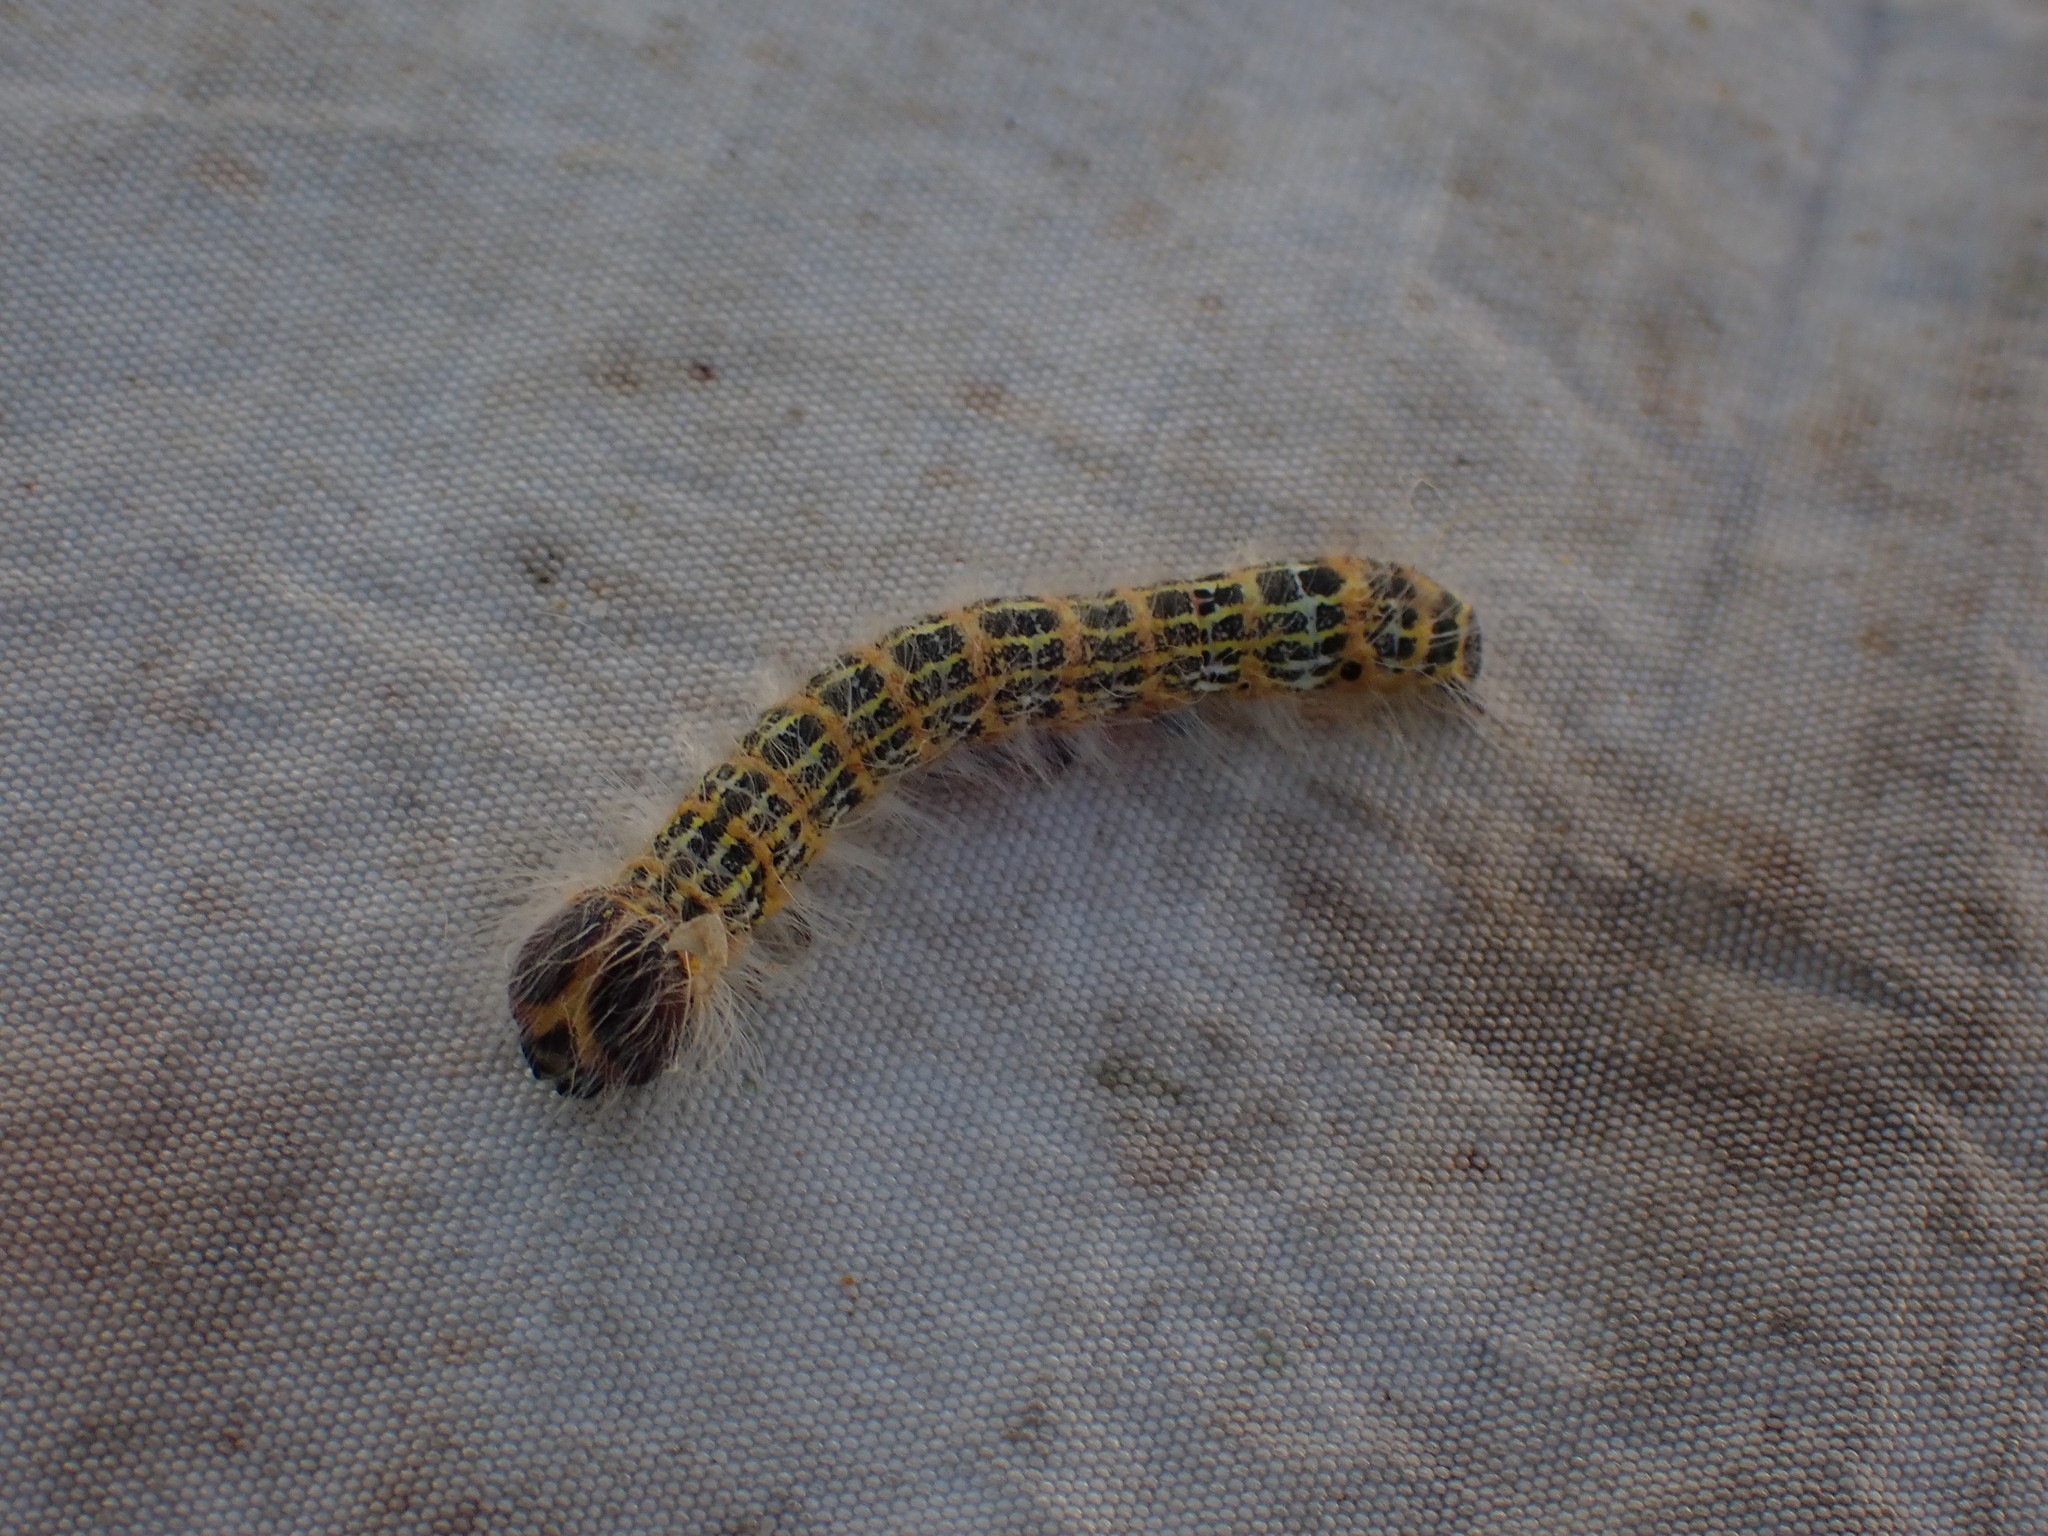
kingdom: Animalia
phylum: Arthropoda
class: Insecta
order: Lepidoptera
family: Notodontidae
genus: Phalera
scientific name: Phalera bucephala
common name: Buff-tip
